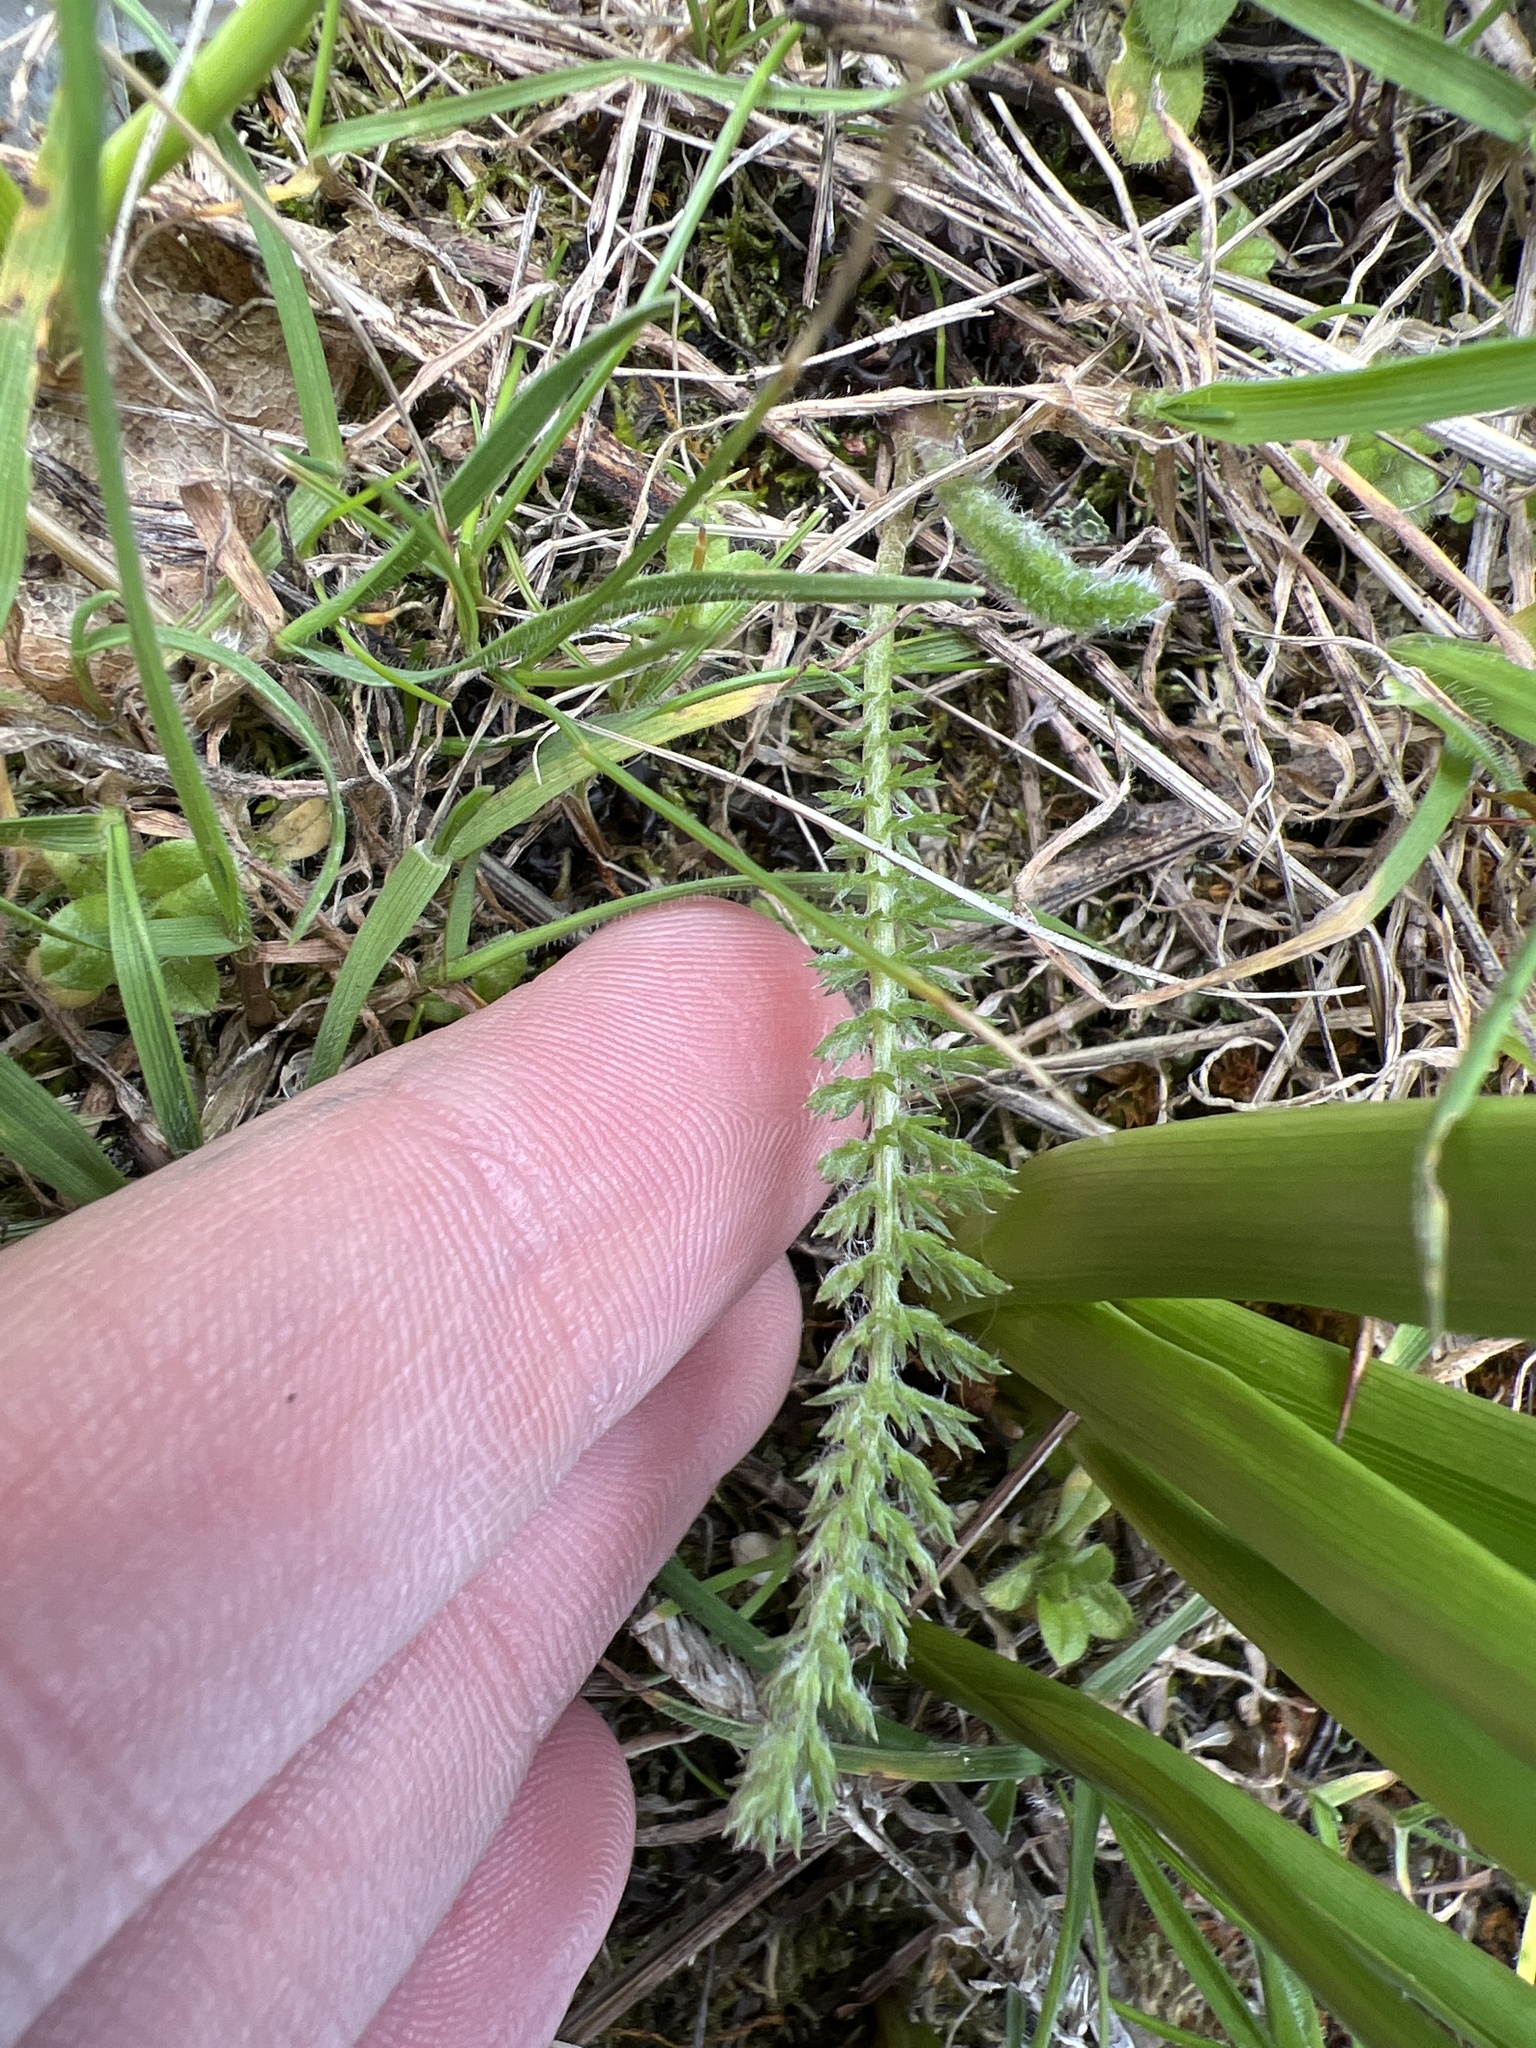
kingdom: Plantae
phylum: Tracheophyta
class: Magnoliopsida
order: Asterales
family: Asteraceae
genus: Achillea
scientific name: Achillea millefolium
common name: Yarrow
